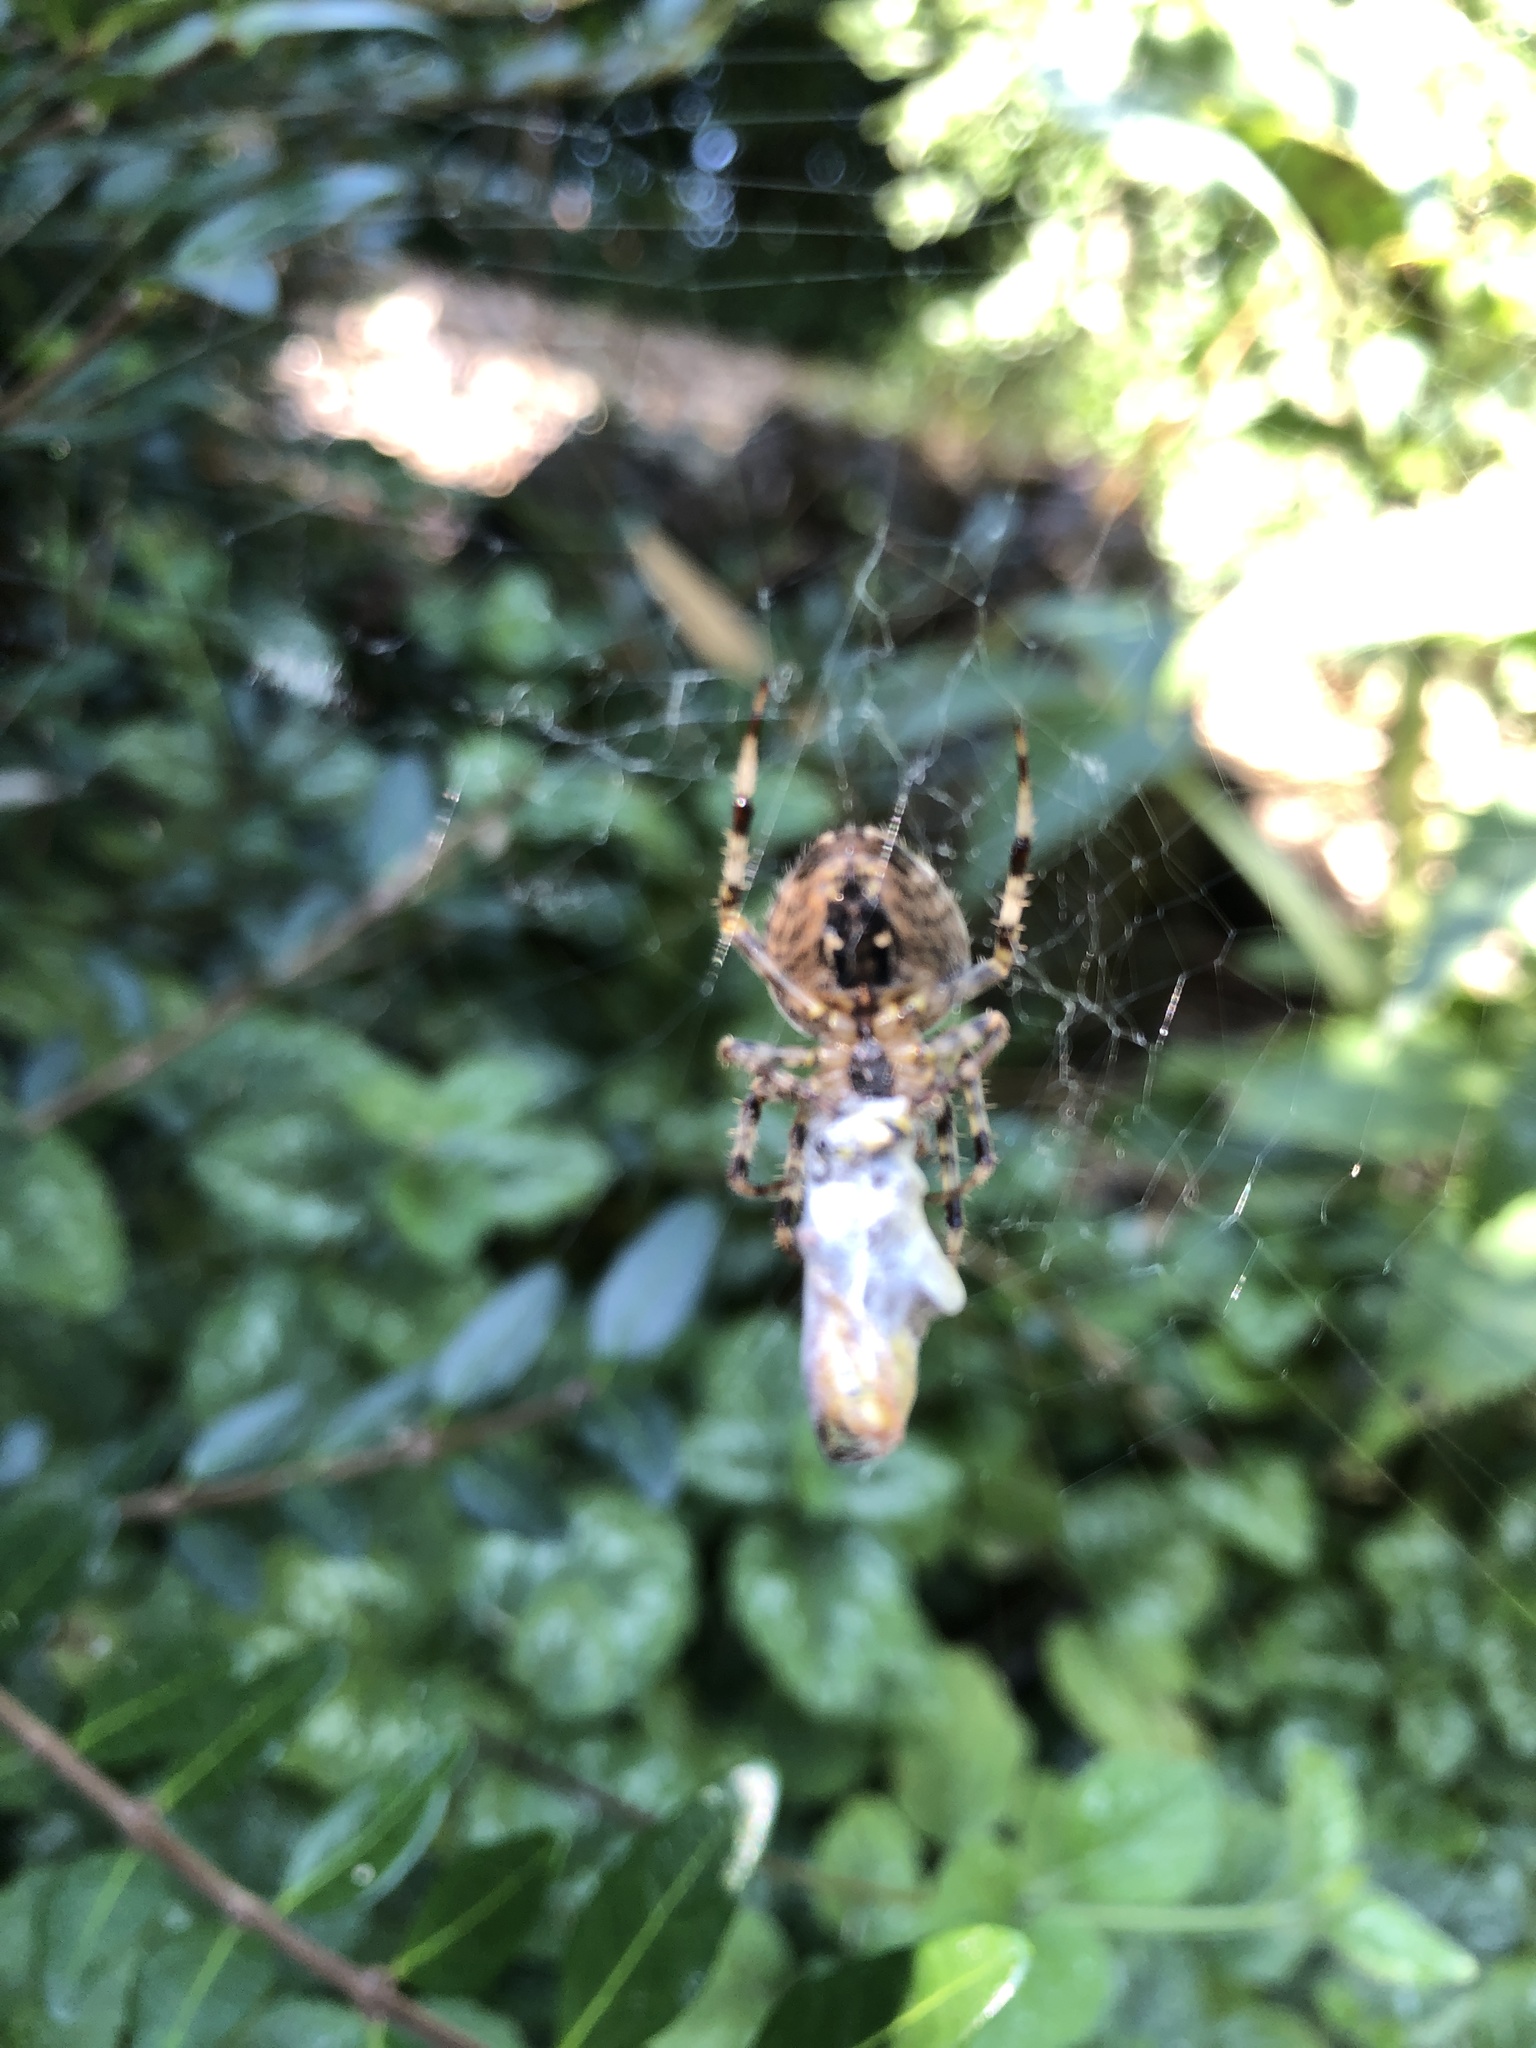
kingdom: Animalia
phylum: Arthropoda
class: Arachnida
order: Araneae
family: Araneidae
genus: Araneus
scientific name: Araneus diadematus
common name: Cross orbweaver
